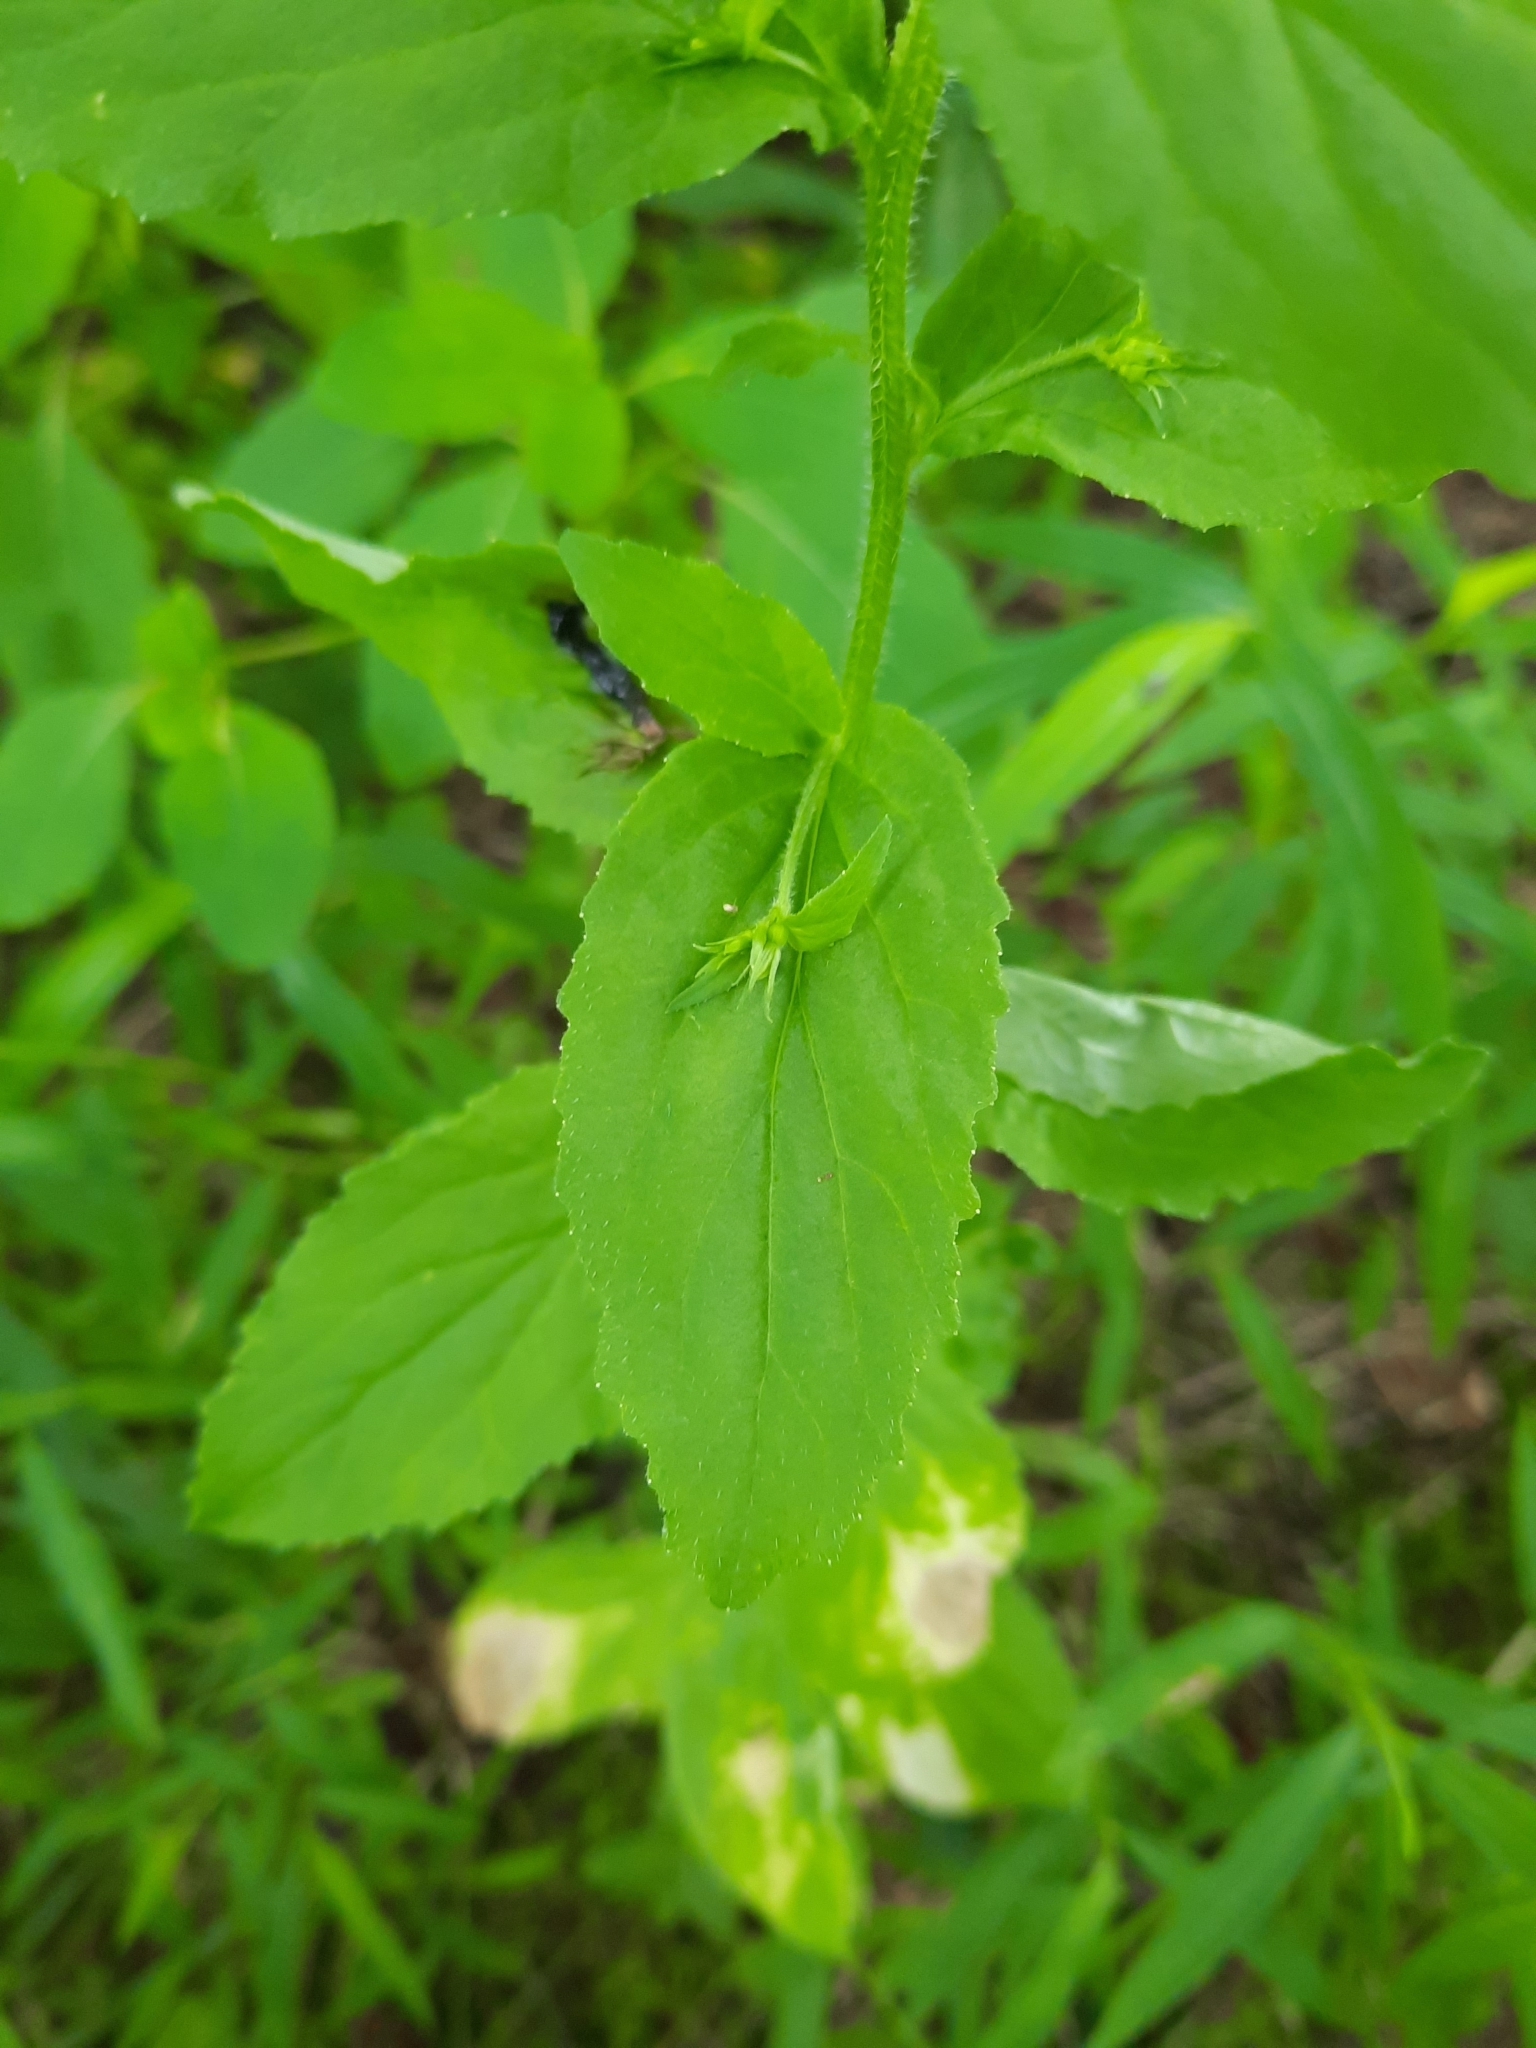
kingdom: Plantae
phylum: Tracheophyta
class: Magnoliopsida
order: Asterales
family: Campanulaceae
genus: Lobelia
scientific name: Lobelia inflata
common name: Indian tobacco
